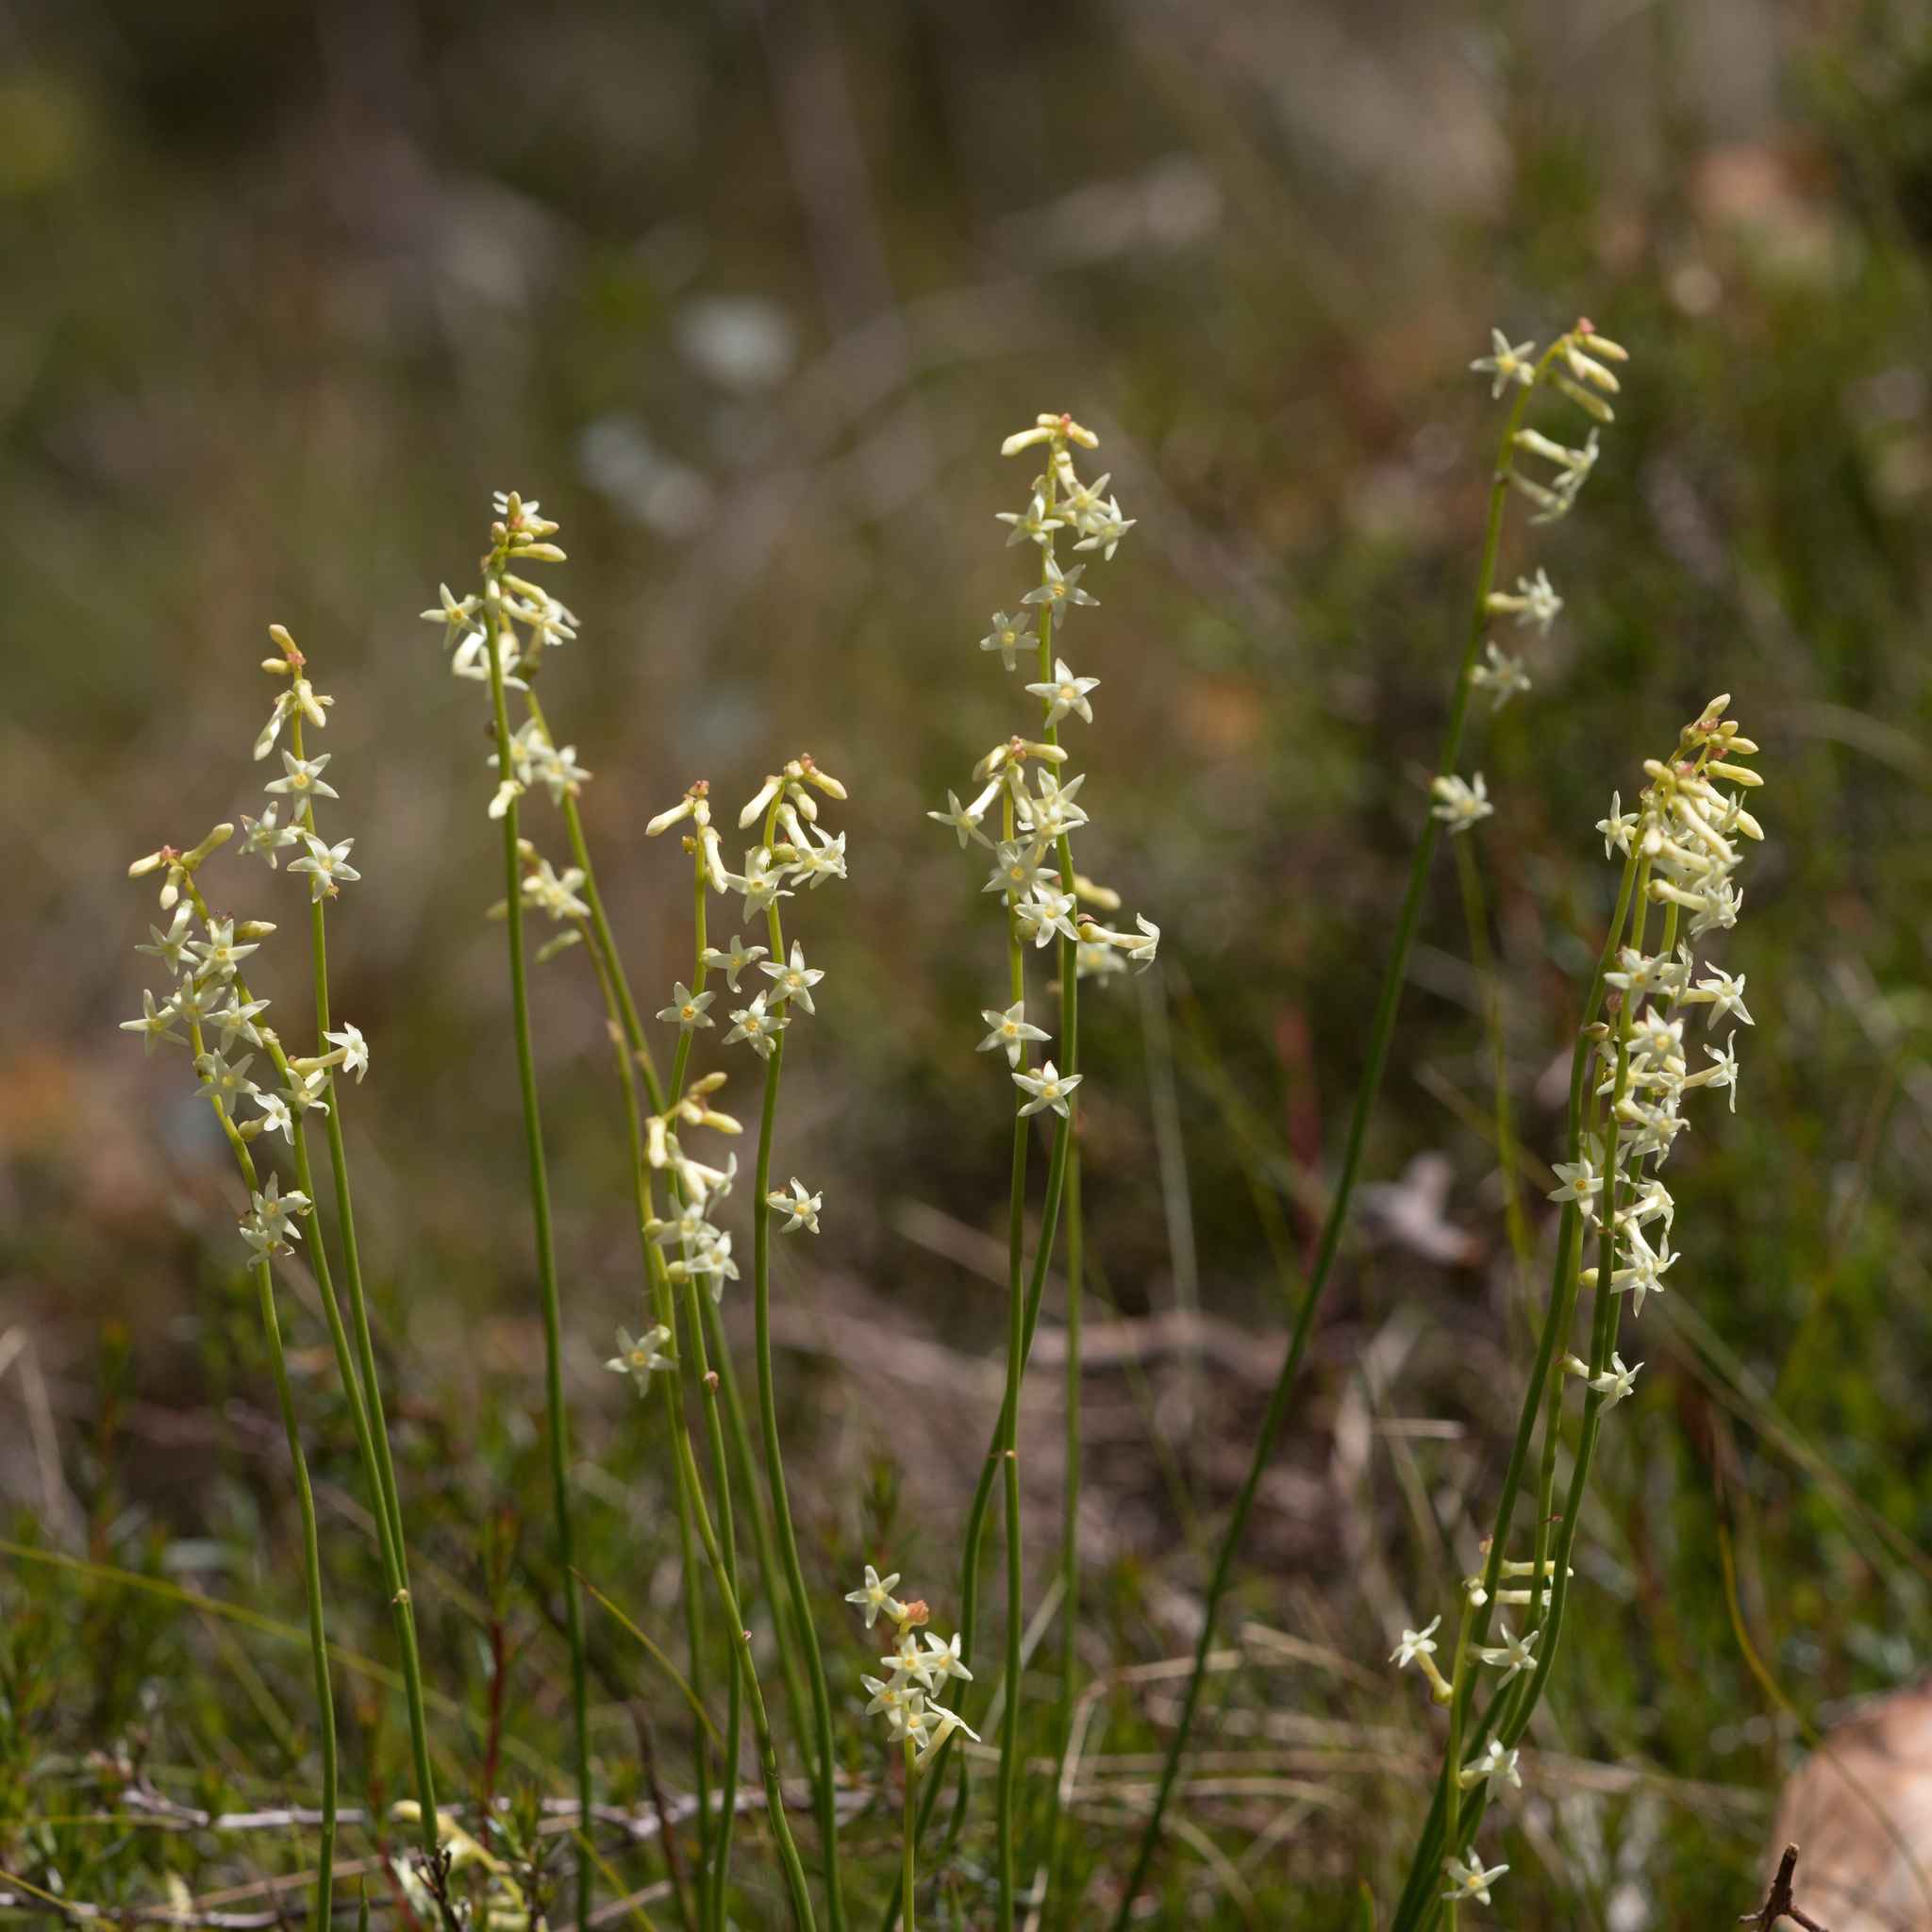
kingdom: Plantae
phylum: Tracheophyta
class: Magnoliopsida
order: Celastrales
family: Celastraceae
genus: Stackhousia
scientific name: Stackhousia monogyna
